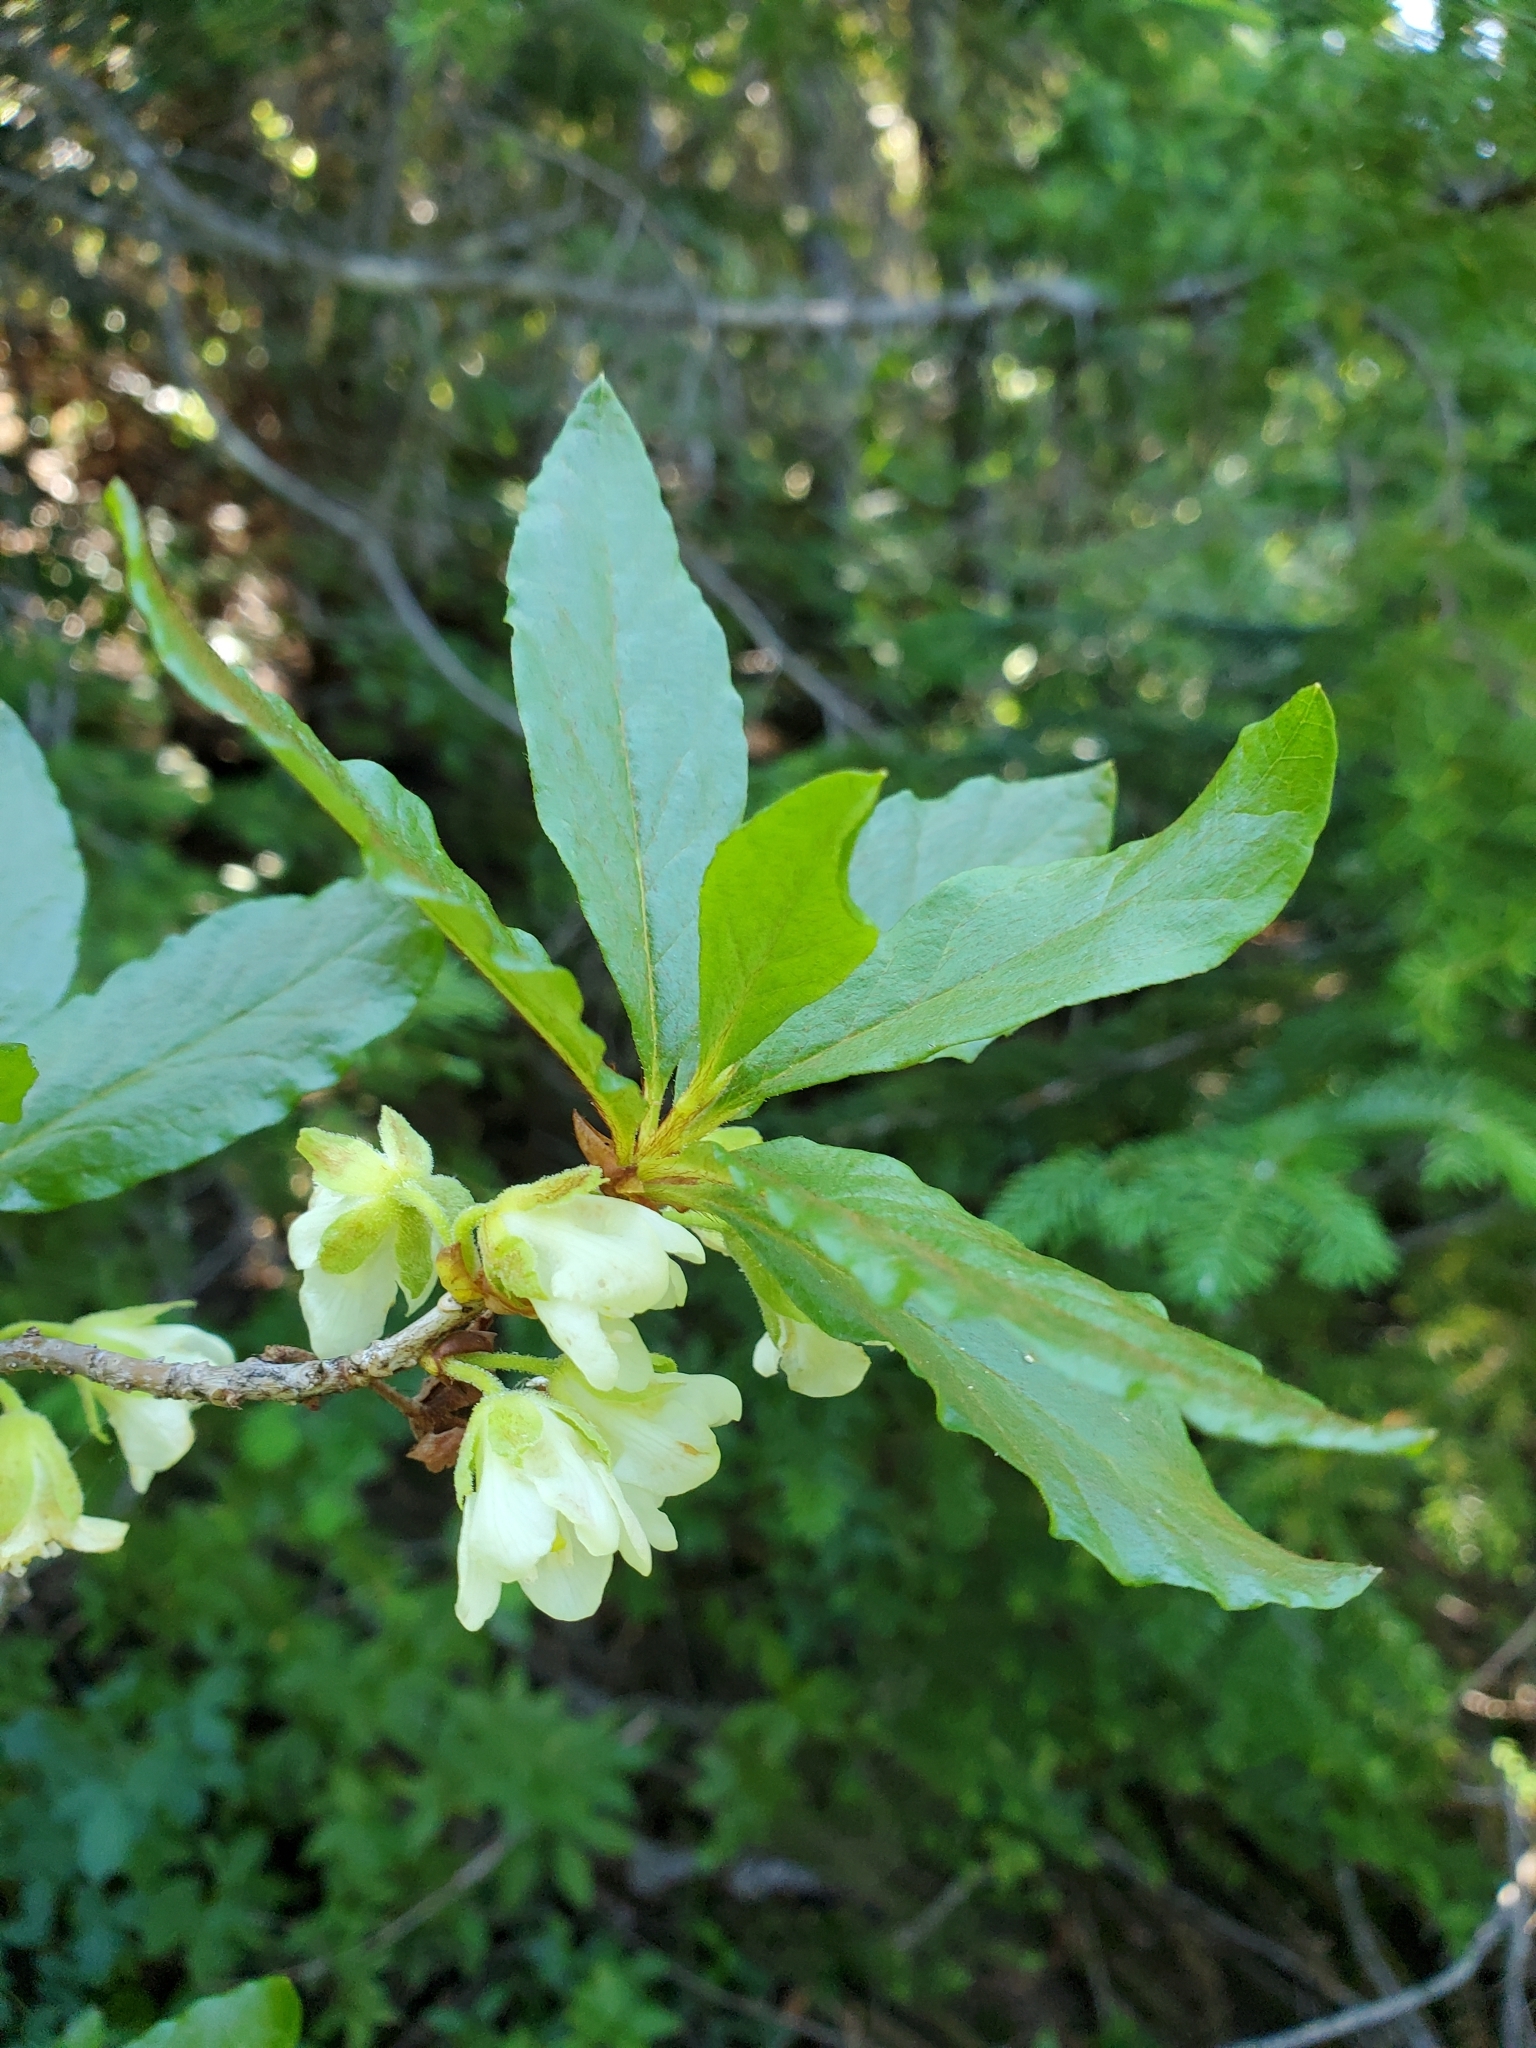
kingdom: Plantae
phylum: Tracheophyta
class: Magnoliopsida
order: Ericales
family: Ericaceae
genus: Rhododendron
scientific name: Rhododendron albiflorum
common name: White rhododendron
